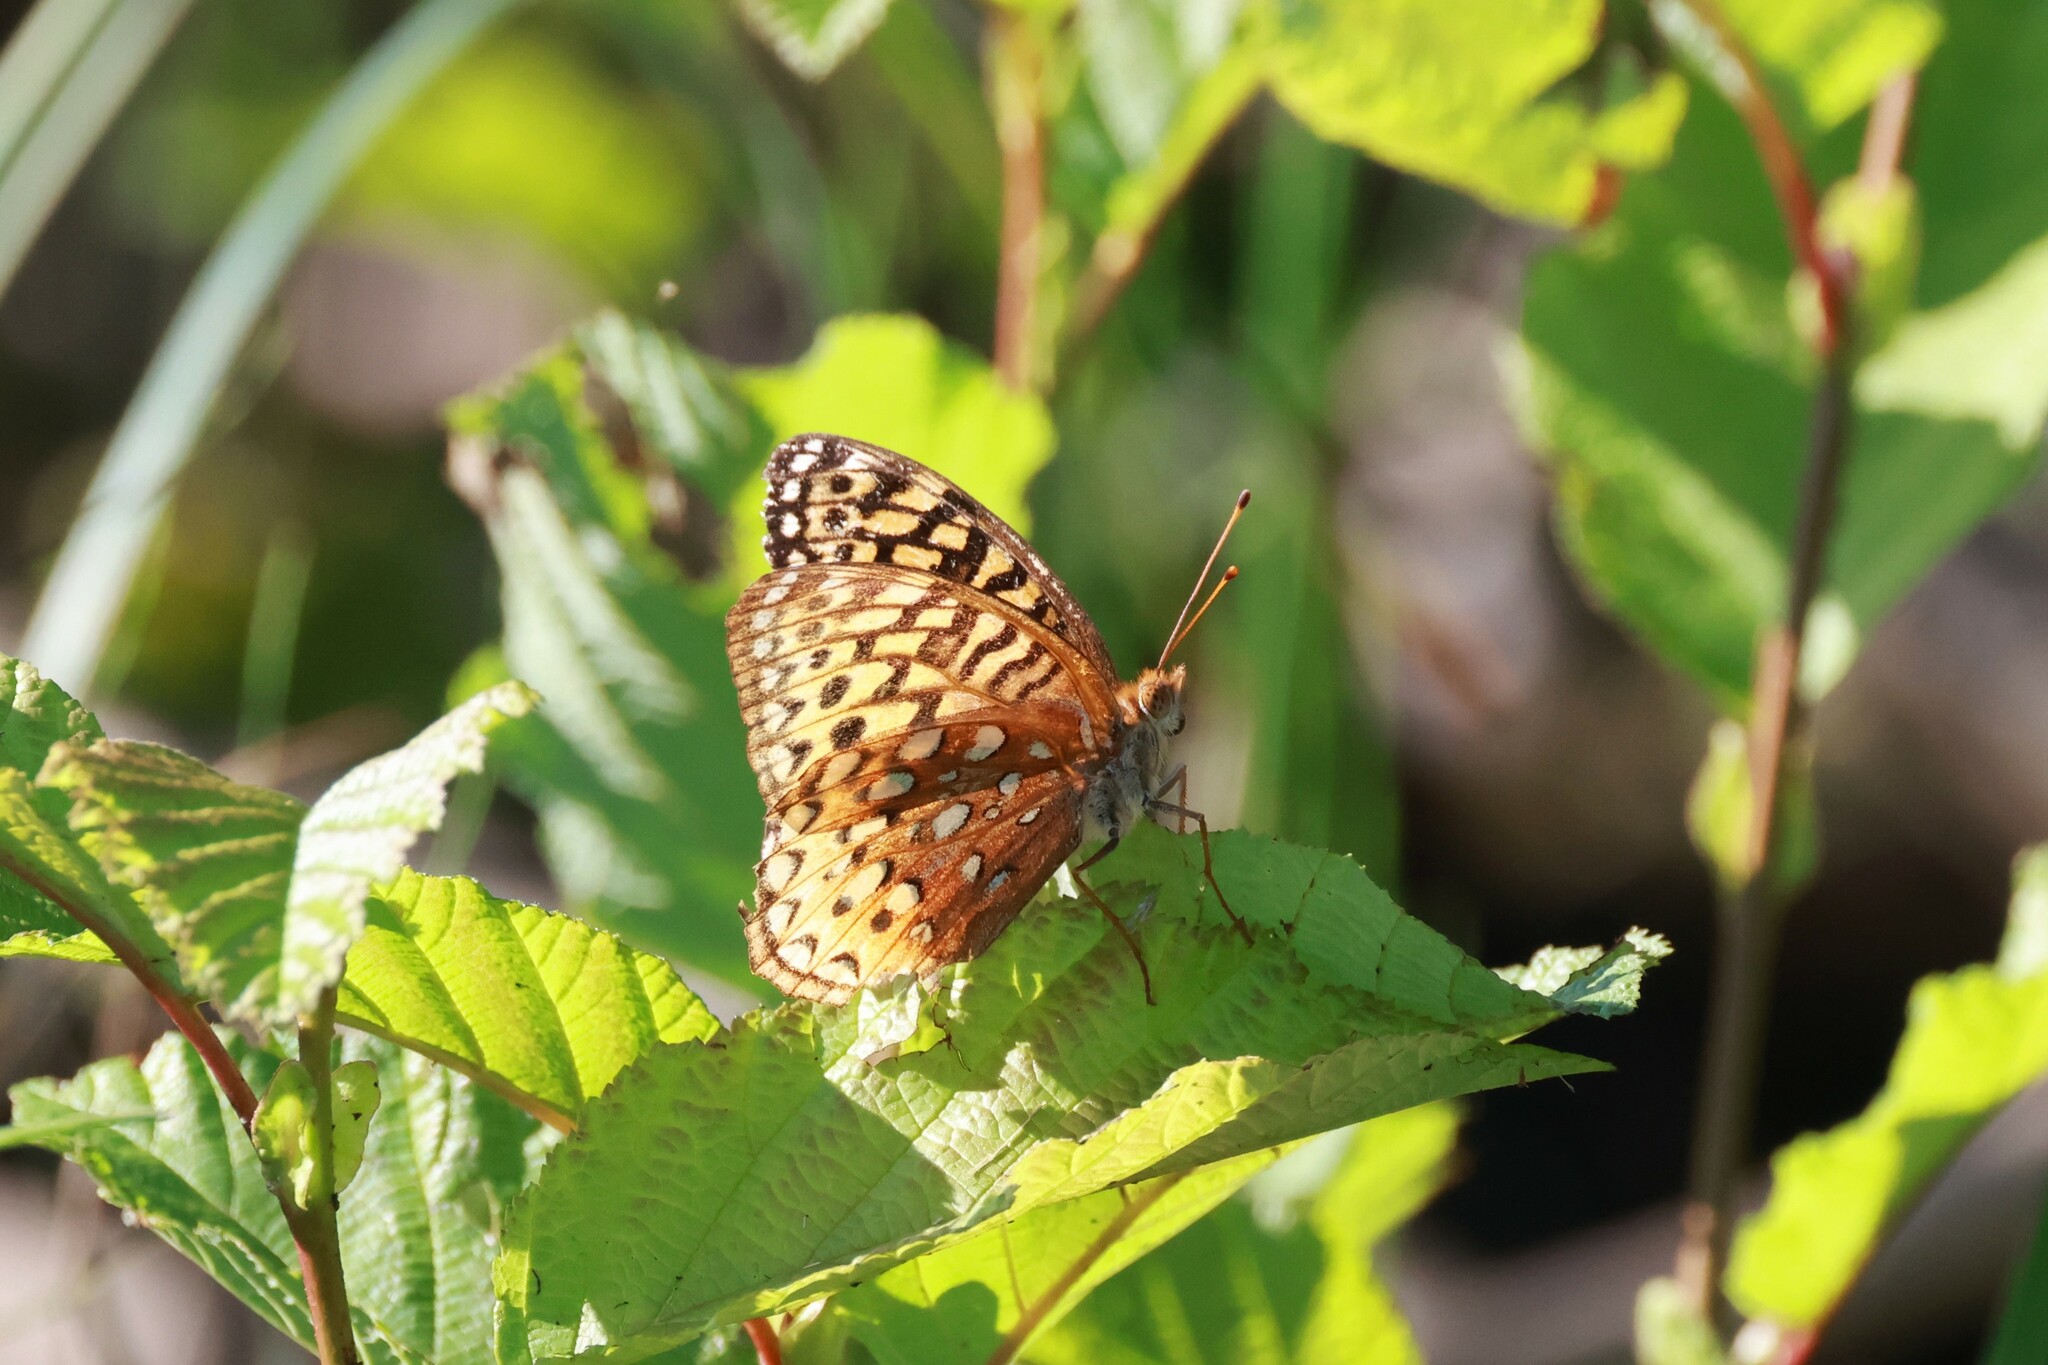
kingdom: Animalia
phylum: Arthropoda
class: Insecta
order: Lepidoptera
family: Nymphalidae
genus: Speyeria
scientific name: Speyeria cybele
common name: Great spangled fritillary
